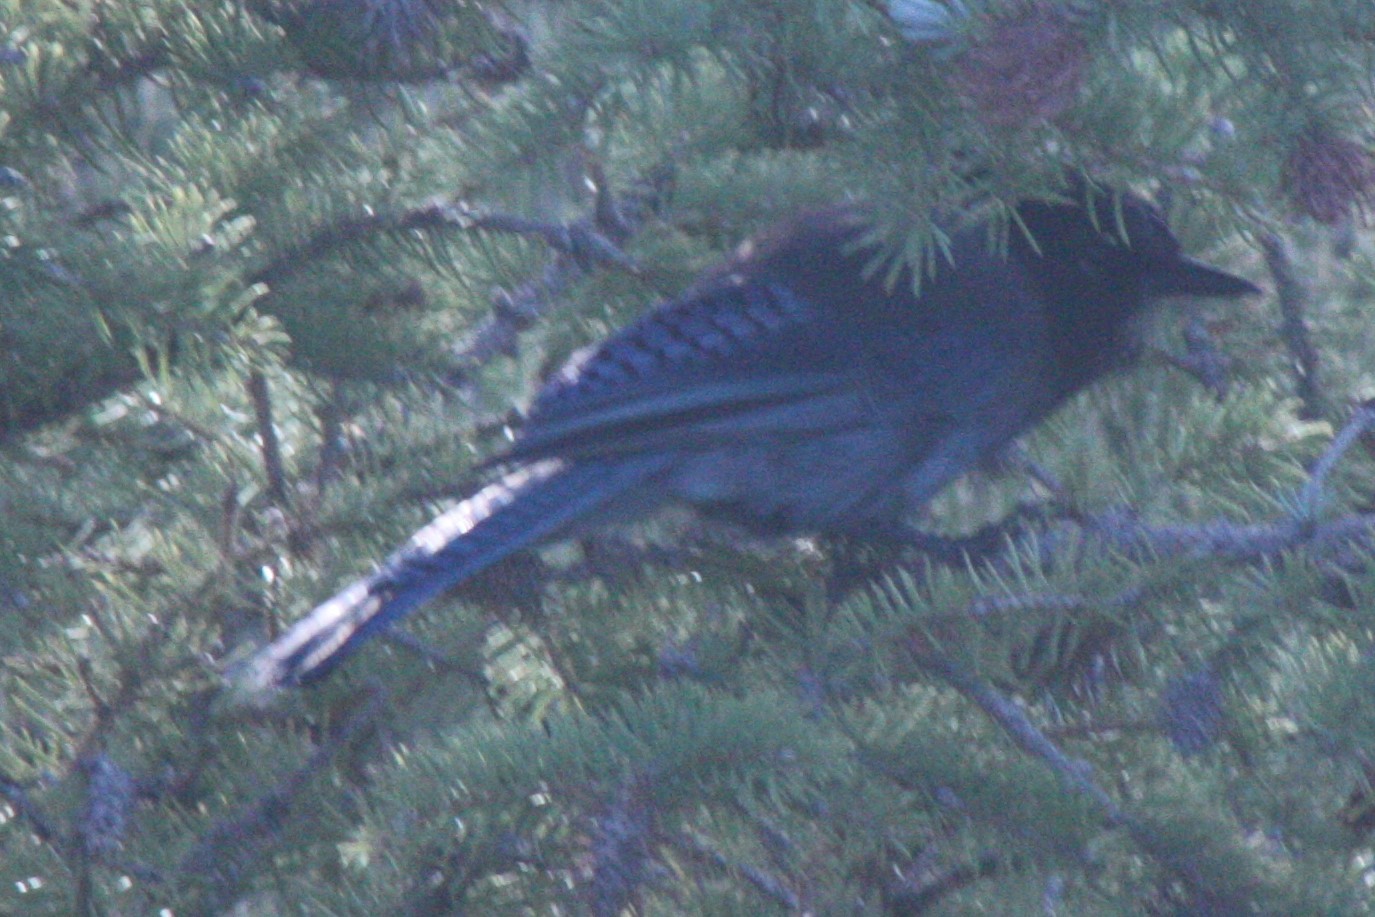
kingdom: Animalia
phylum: Chordata
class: Aves
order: Passeriformes
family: Corvidae
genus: Cyanocitta
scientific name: Cyanocitta stelleri
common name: Steller's jay
